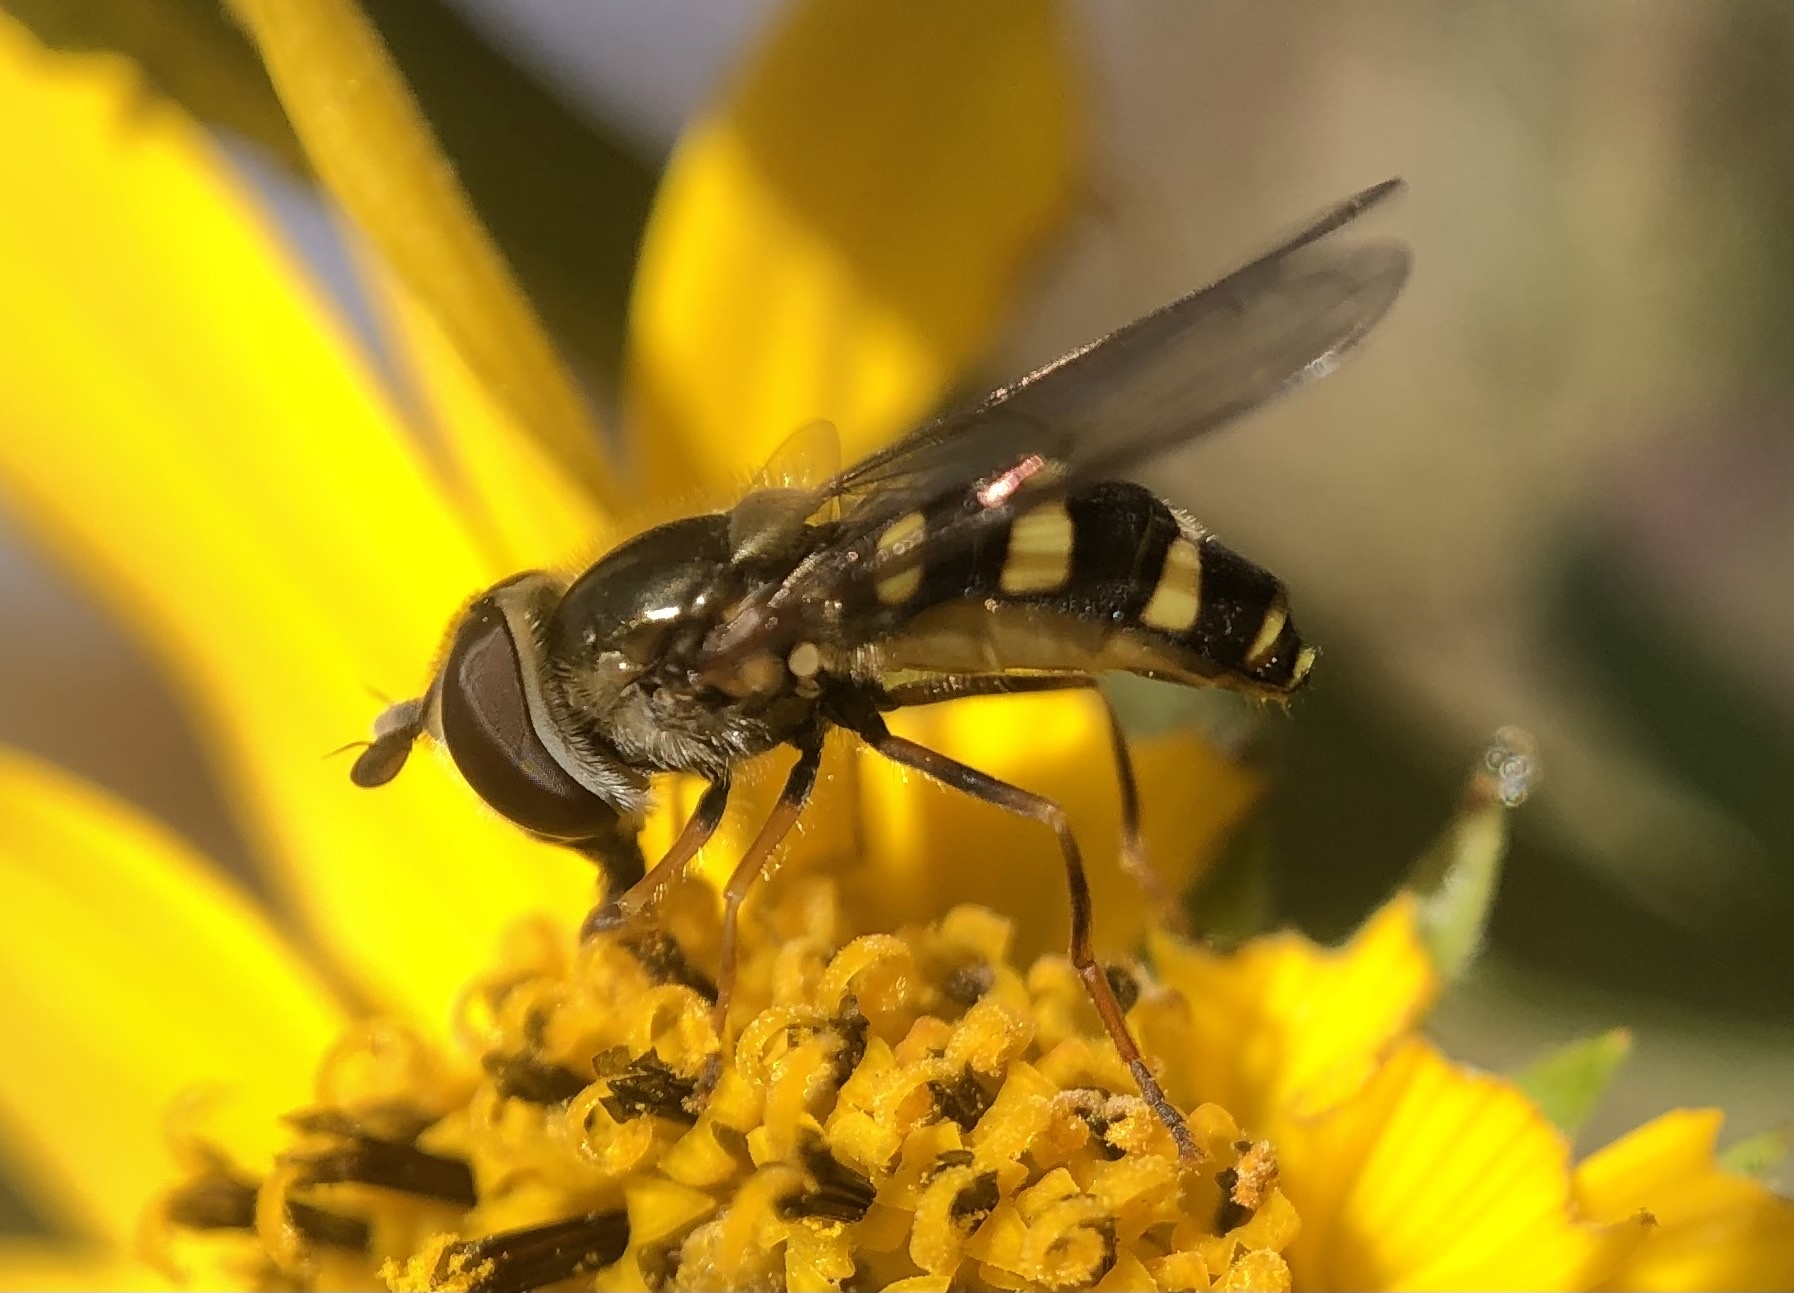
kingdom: Animalia
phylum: Arthropoda
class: Insecta
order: Diptera
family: Syrphidae
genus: Eupeodes
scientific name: Eupeodes
